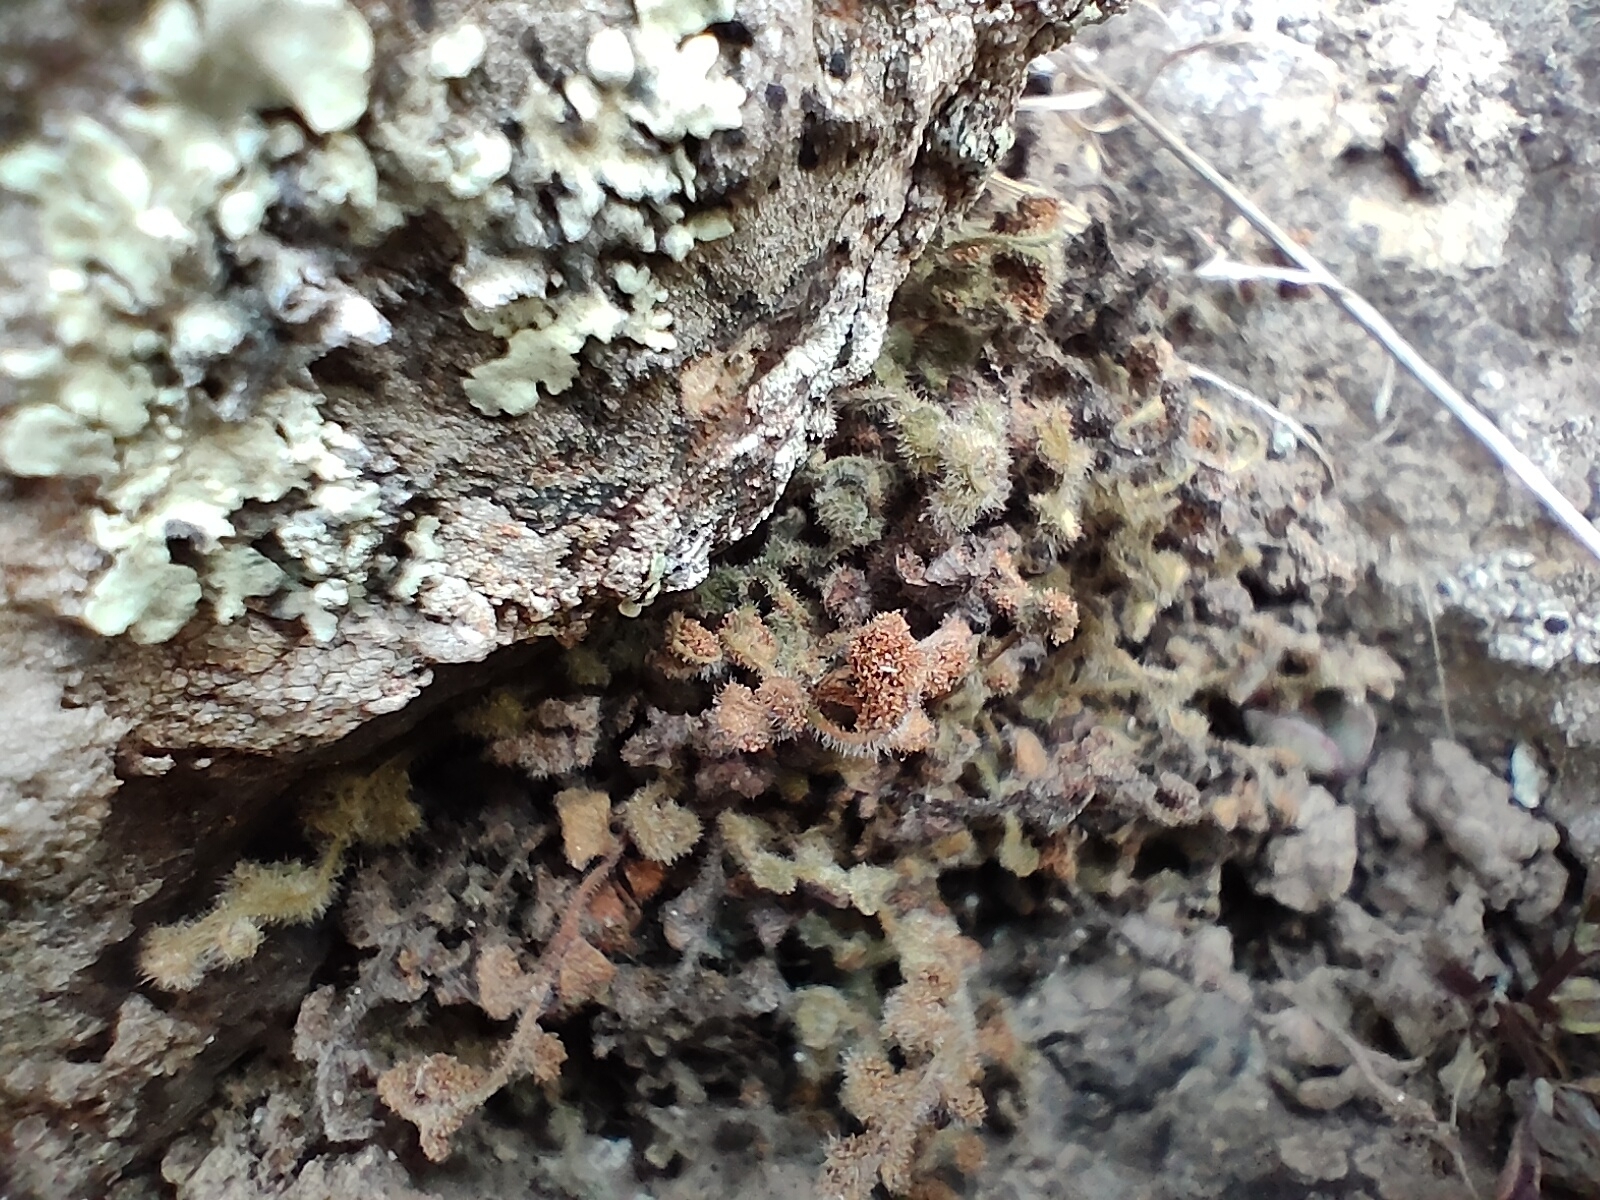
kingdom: Plantae
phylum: Tracheophyta
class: Polypodiopsida
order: Polypodiales
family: Aspleniaceae
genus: Asplenium
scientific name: Asplenium subglandulosum
